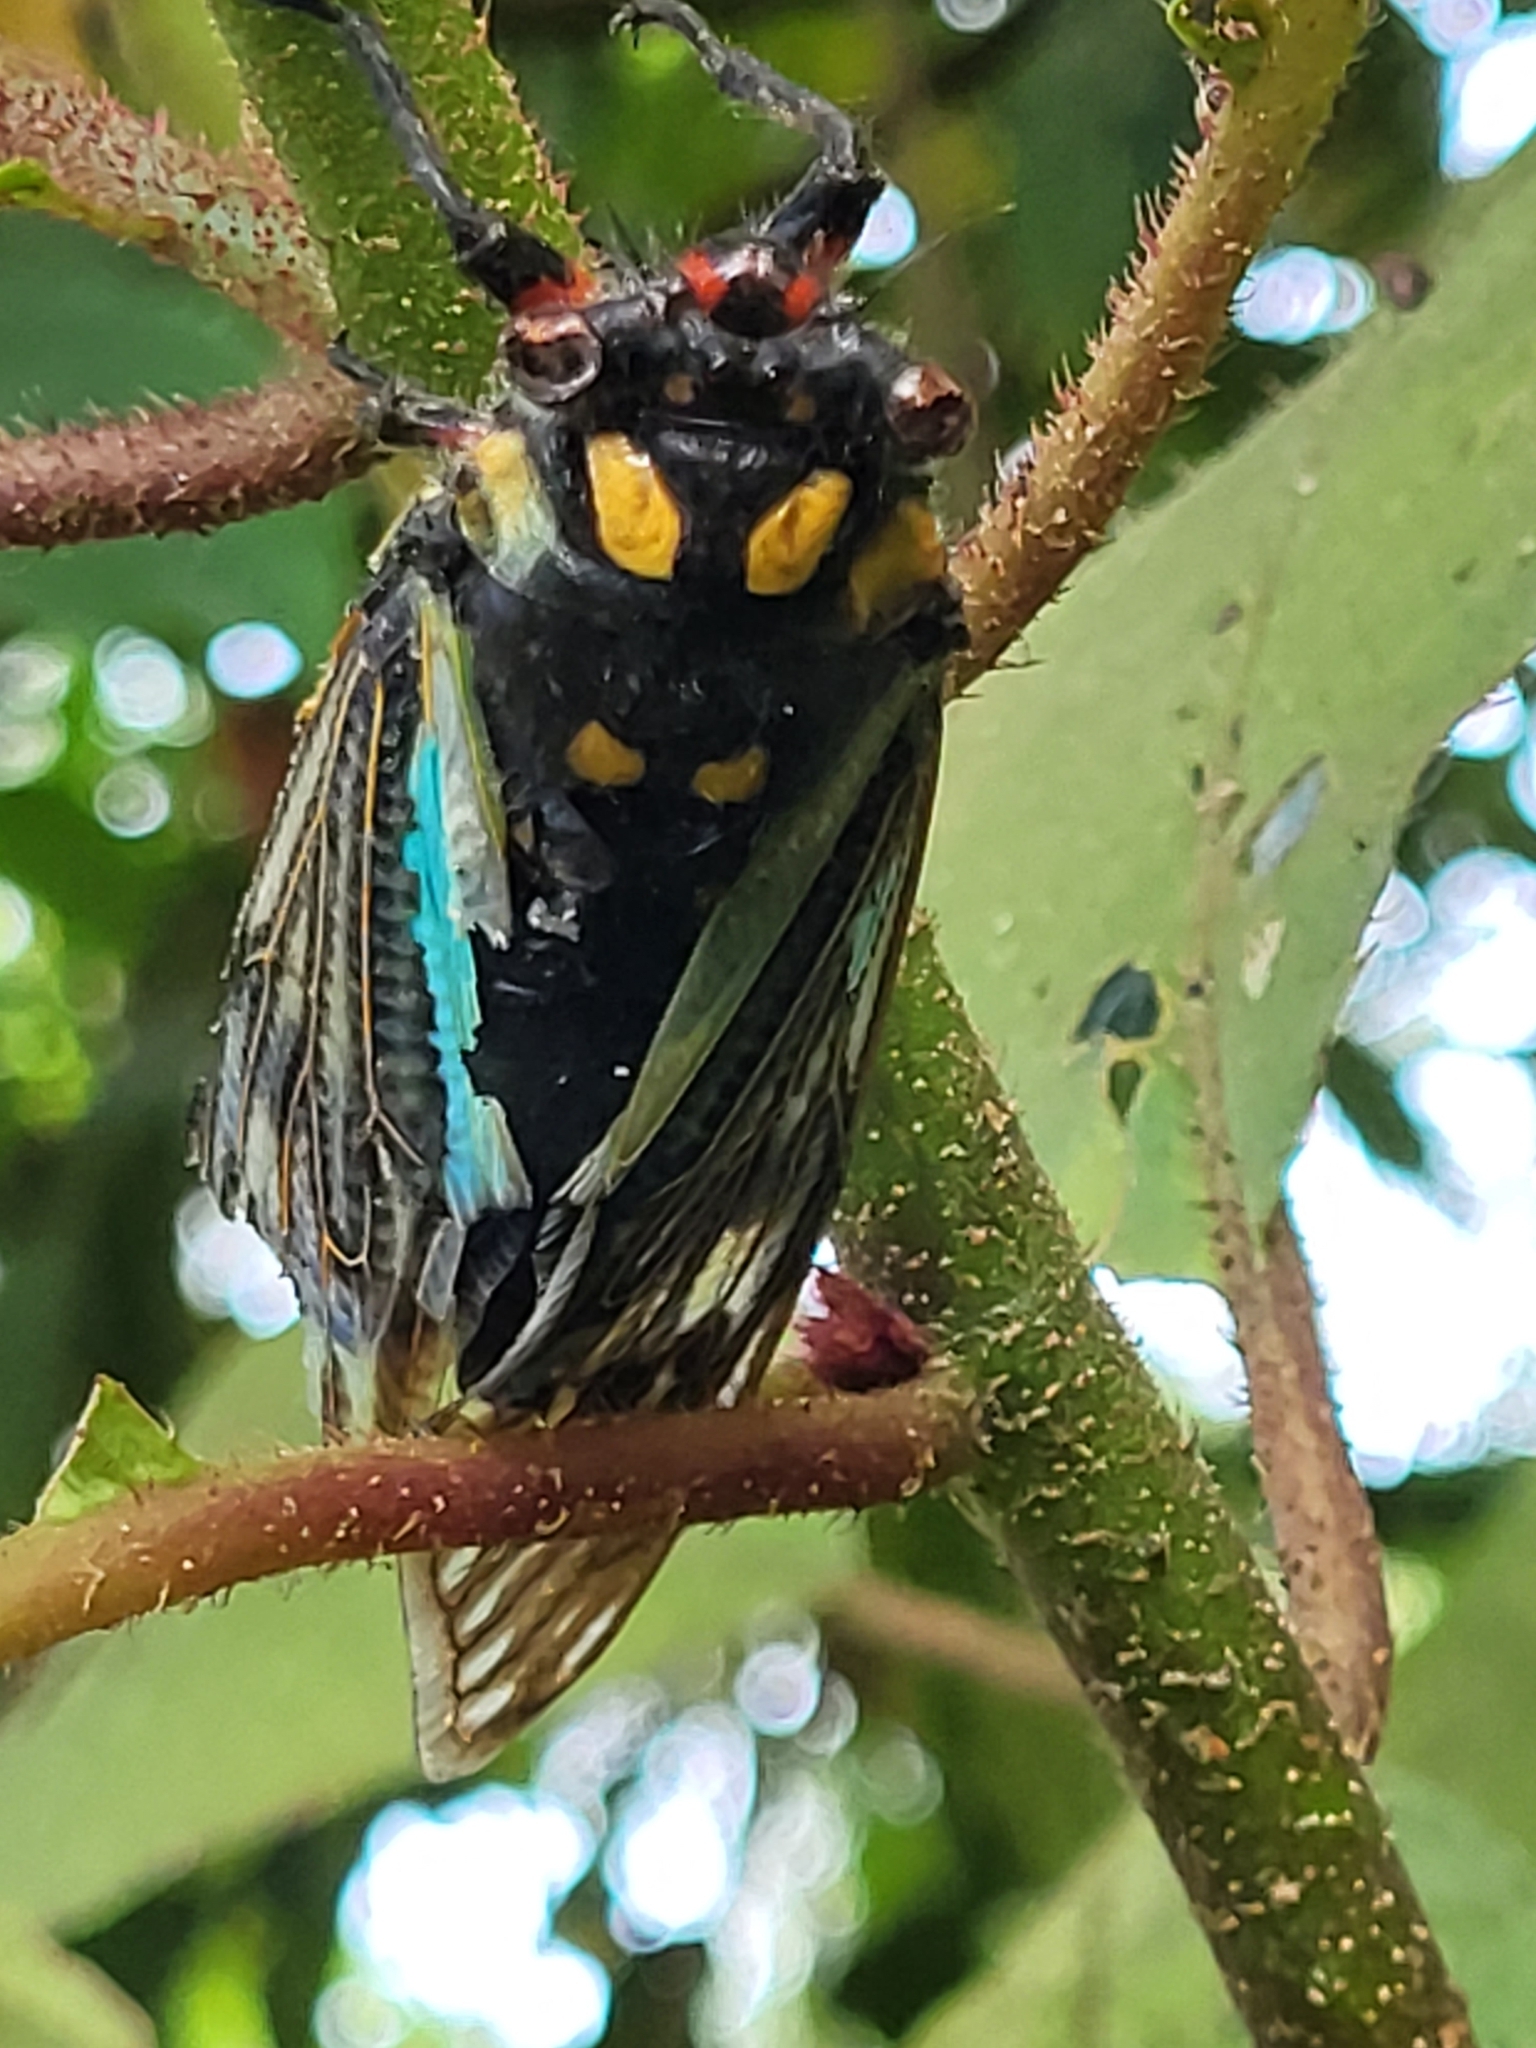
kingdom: Animalia
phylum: Arthropoda
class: Insecta
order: Hemiptera
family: Cicadidae
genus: Distantalna
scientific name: Distantalna splendida
